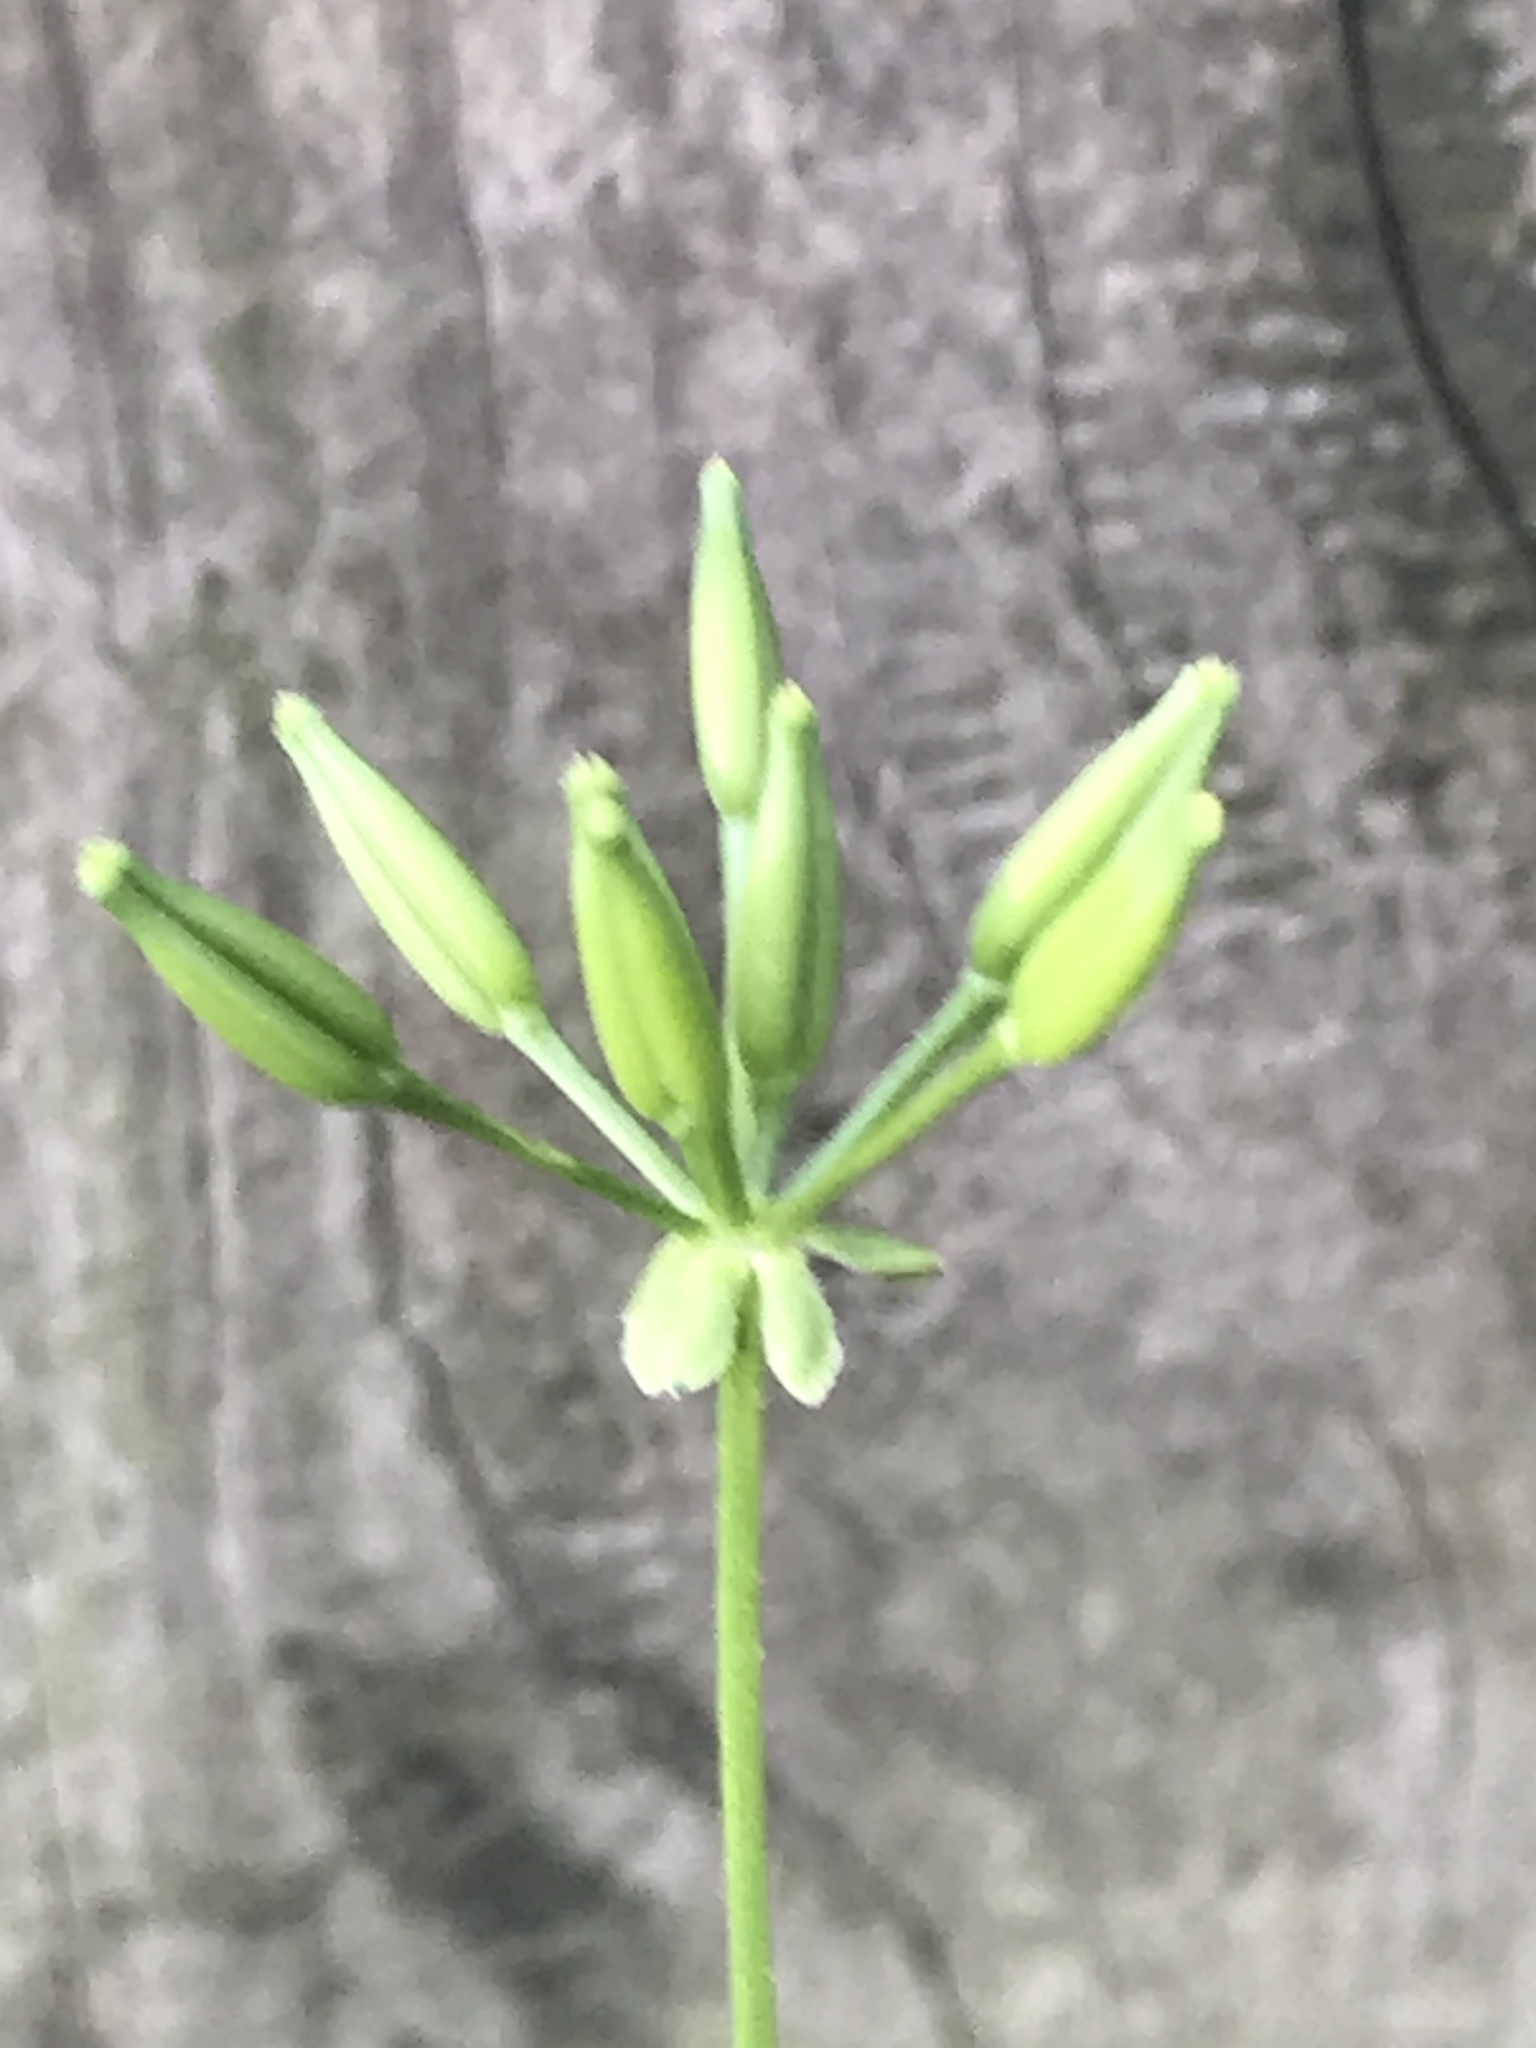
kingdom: Plantae
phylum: Tracheophyta
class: Magnoliopsida
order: Apiales
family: Apiaceae
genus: Chaerophyllum
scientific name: Chaerophyllum procumbens
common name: Spreading chervil
